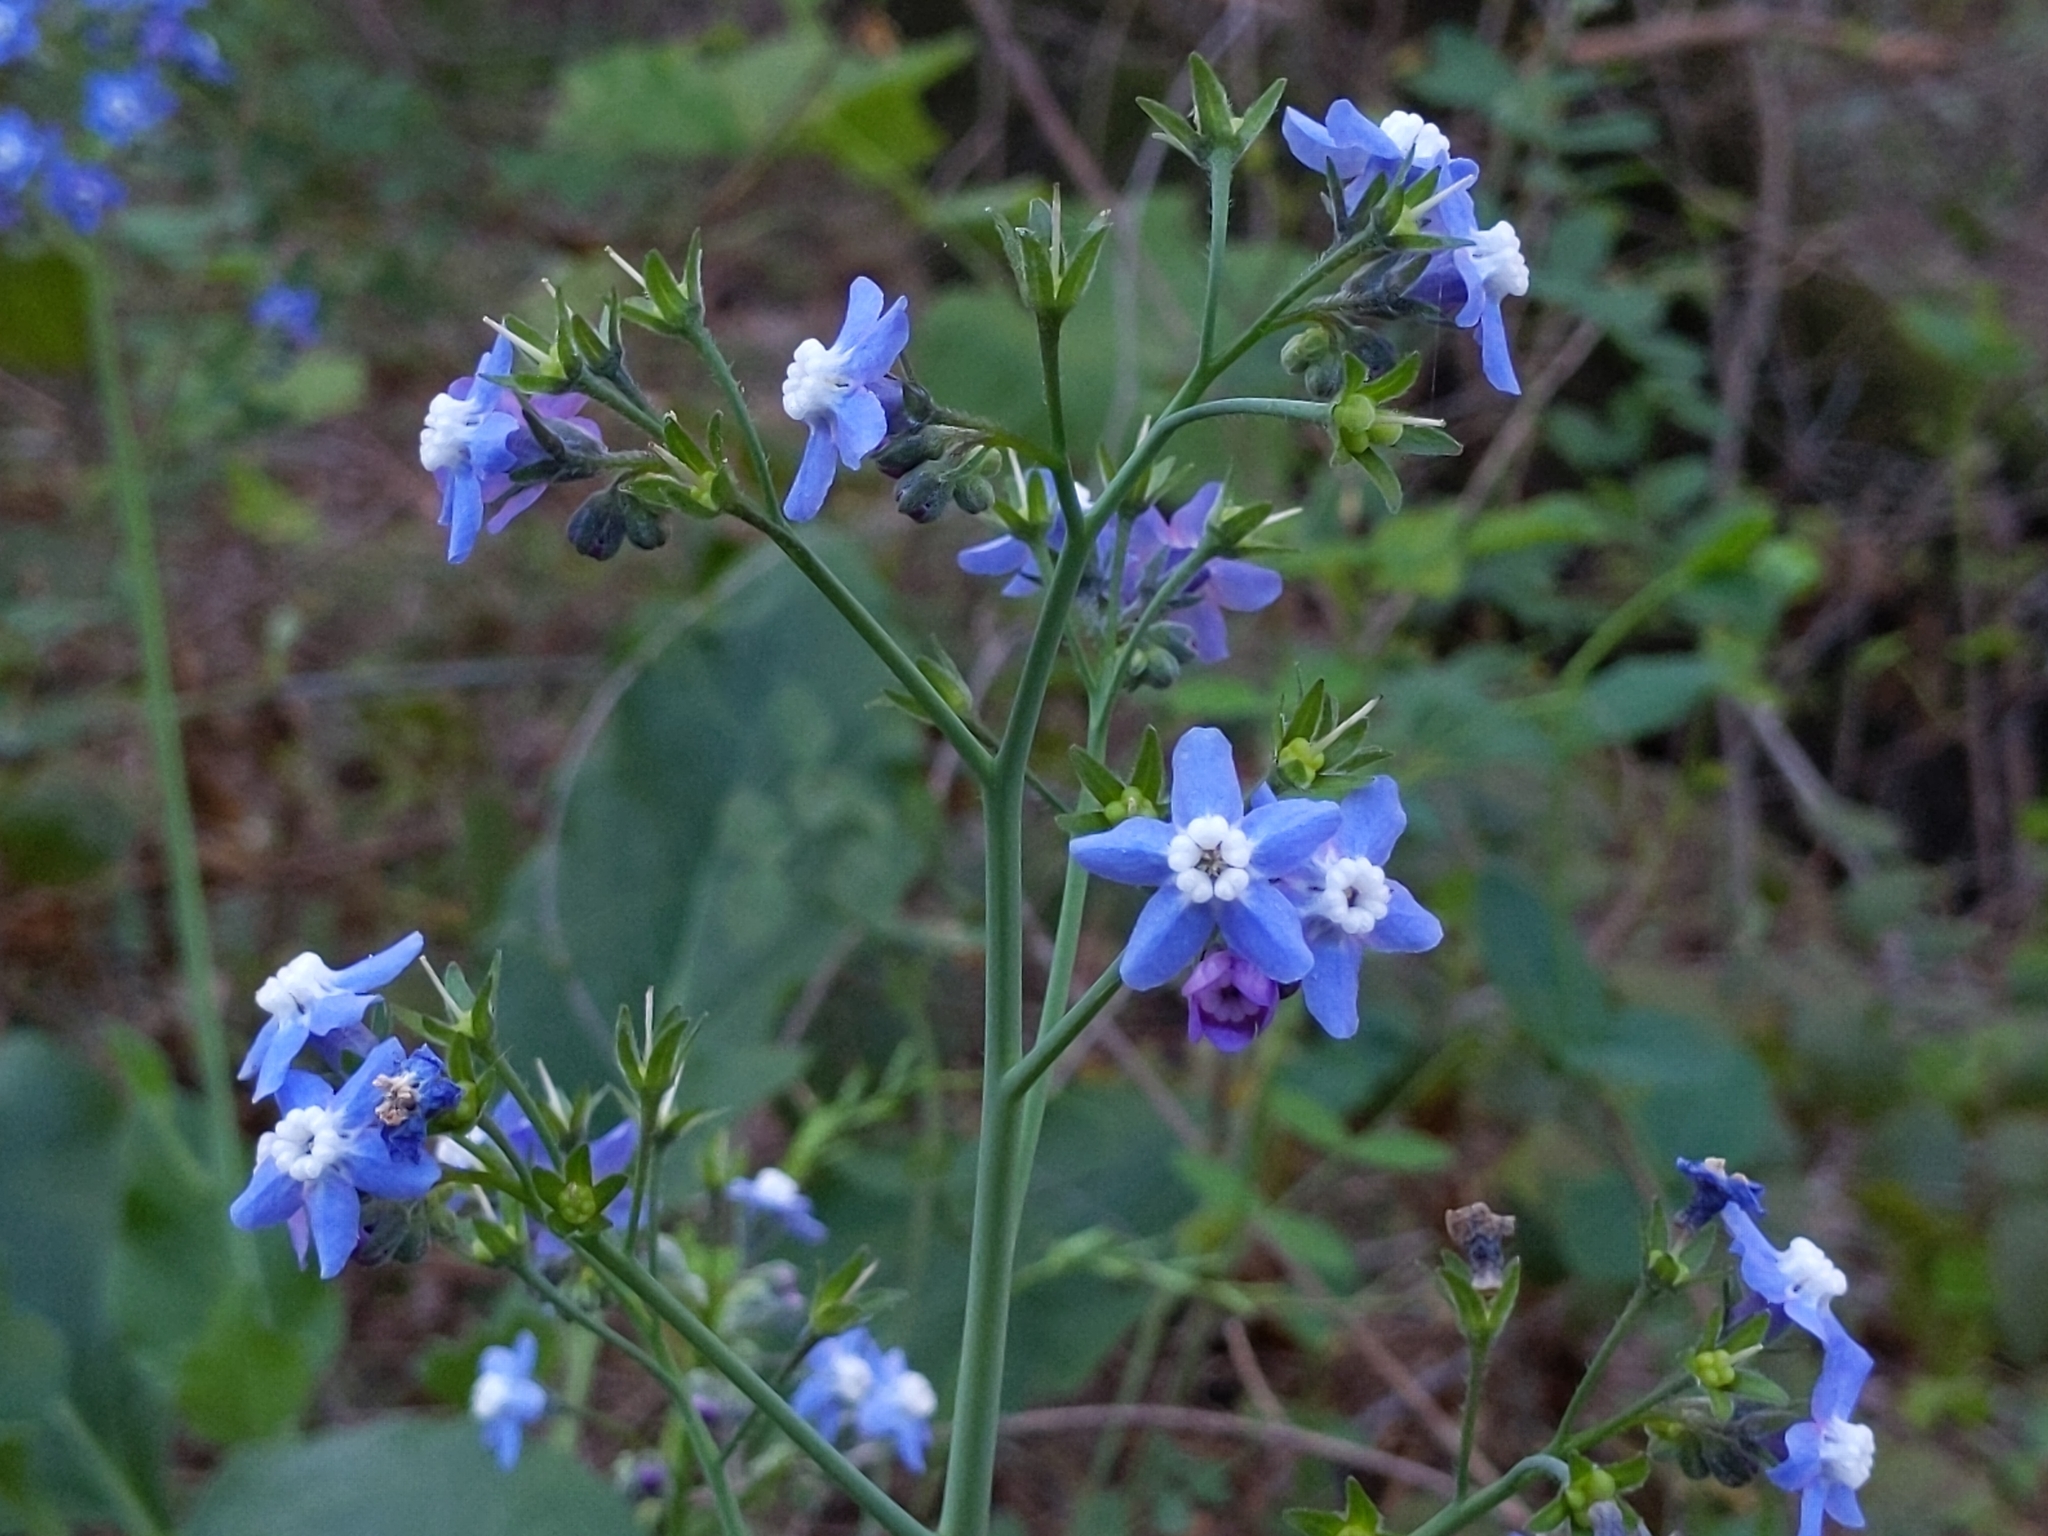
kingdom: Plantae
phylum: Tracheophyta
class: Magnoliopsida
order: Boraginales
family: Boraginaceae
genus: Adelinia
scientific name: Adelinia grande
